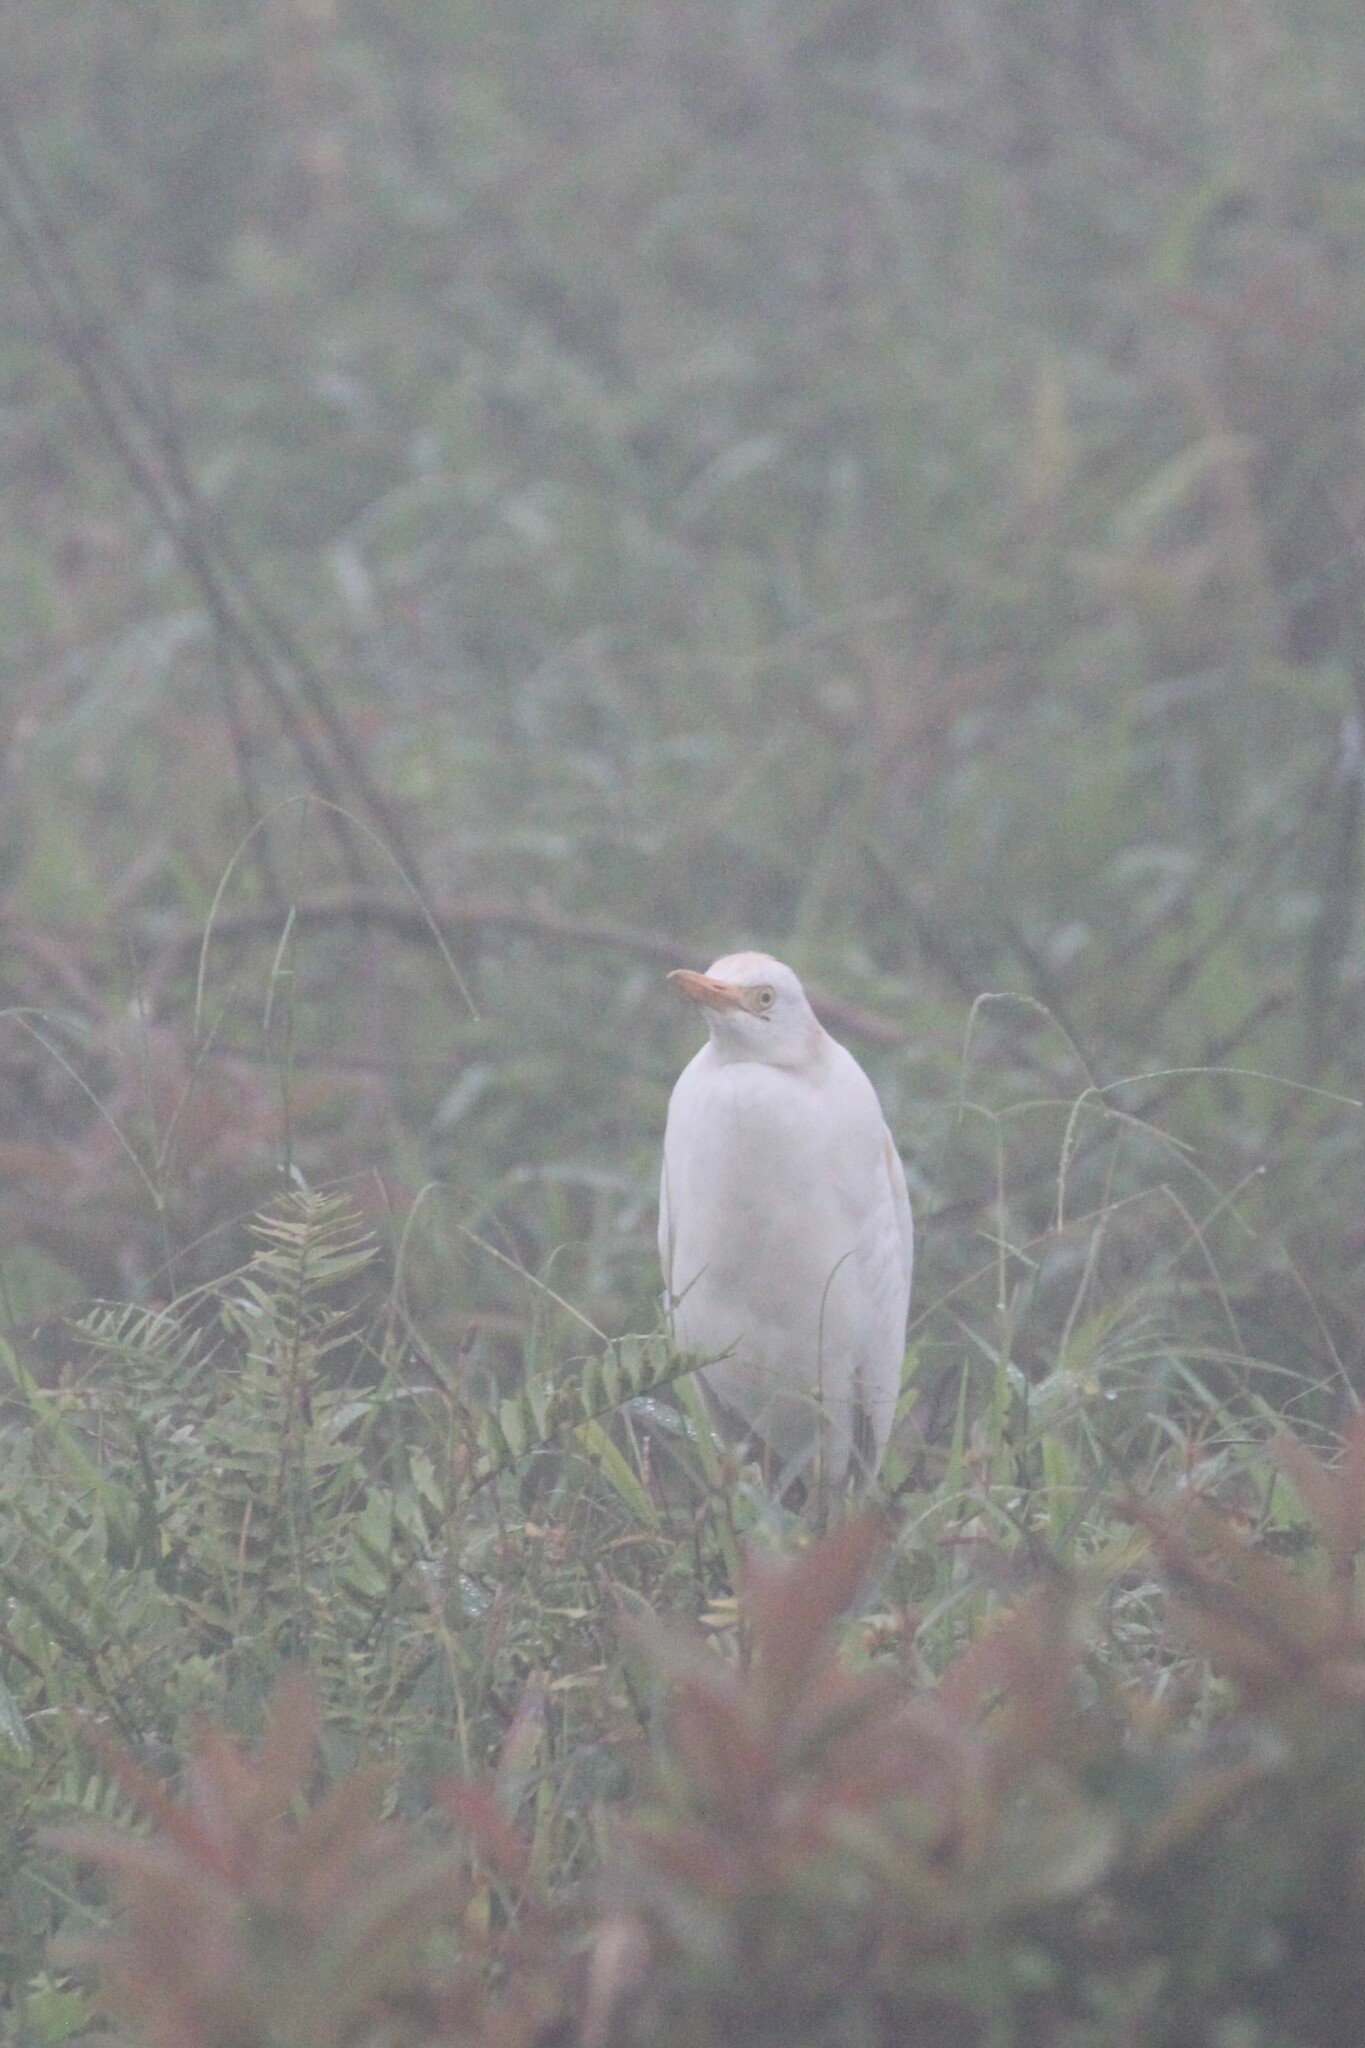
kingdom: Animalia
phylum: Chordata
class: Aves
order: Pelecaniformes
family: Ardeidae
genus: Bubulcus
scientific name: Bubulcus ibis
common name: Cattle egret
